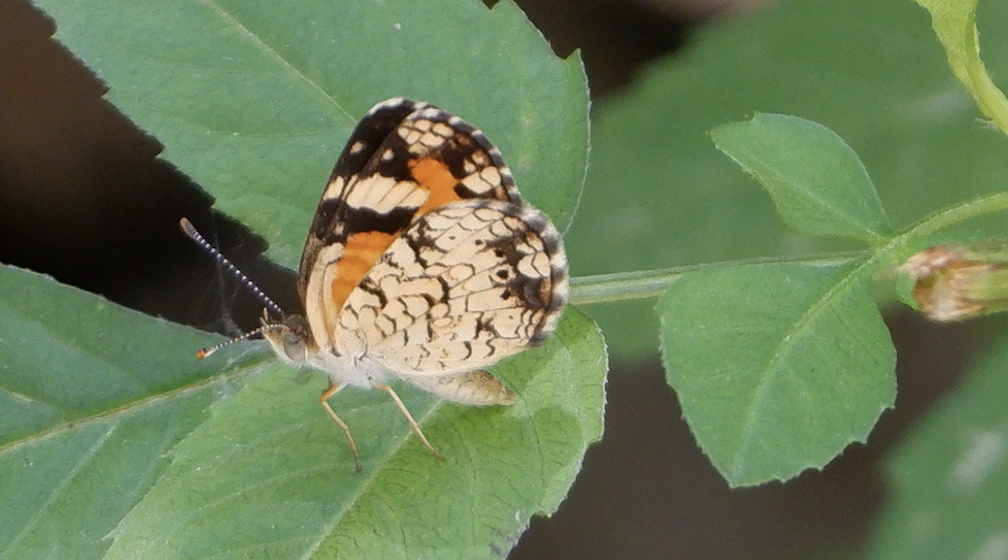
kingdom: Animalia
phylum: Arthropoda
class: Insecta
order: Lepidoptera
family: Nymphalidae
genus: Phyciodes
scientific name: Phyciodes phaon
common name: Phaon crescent
